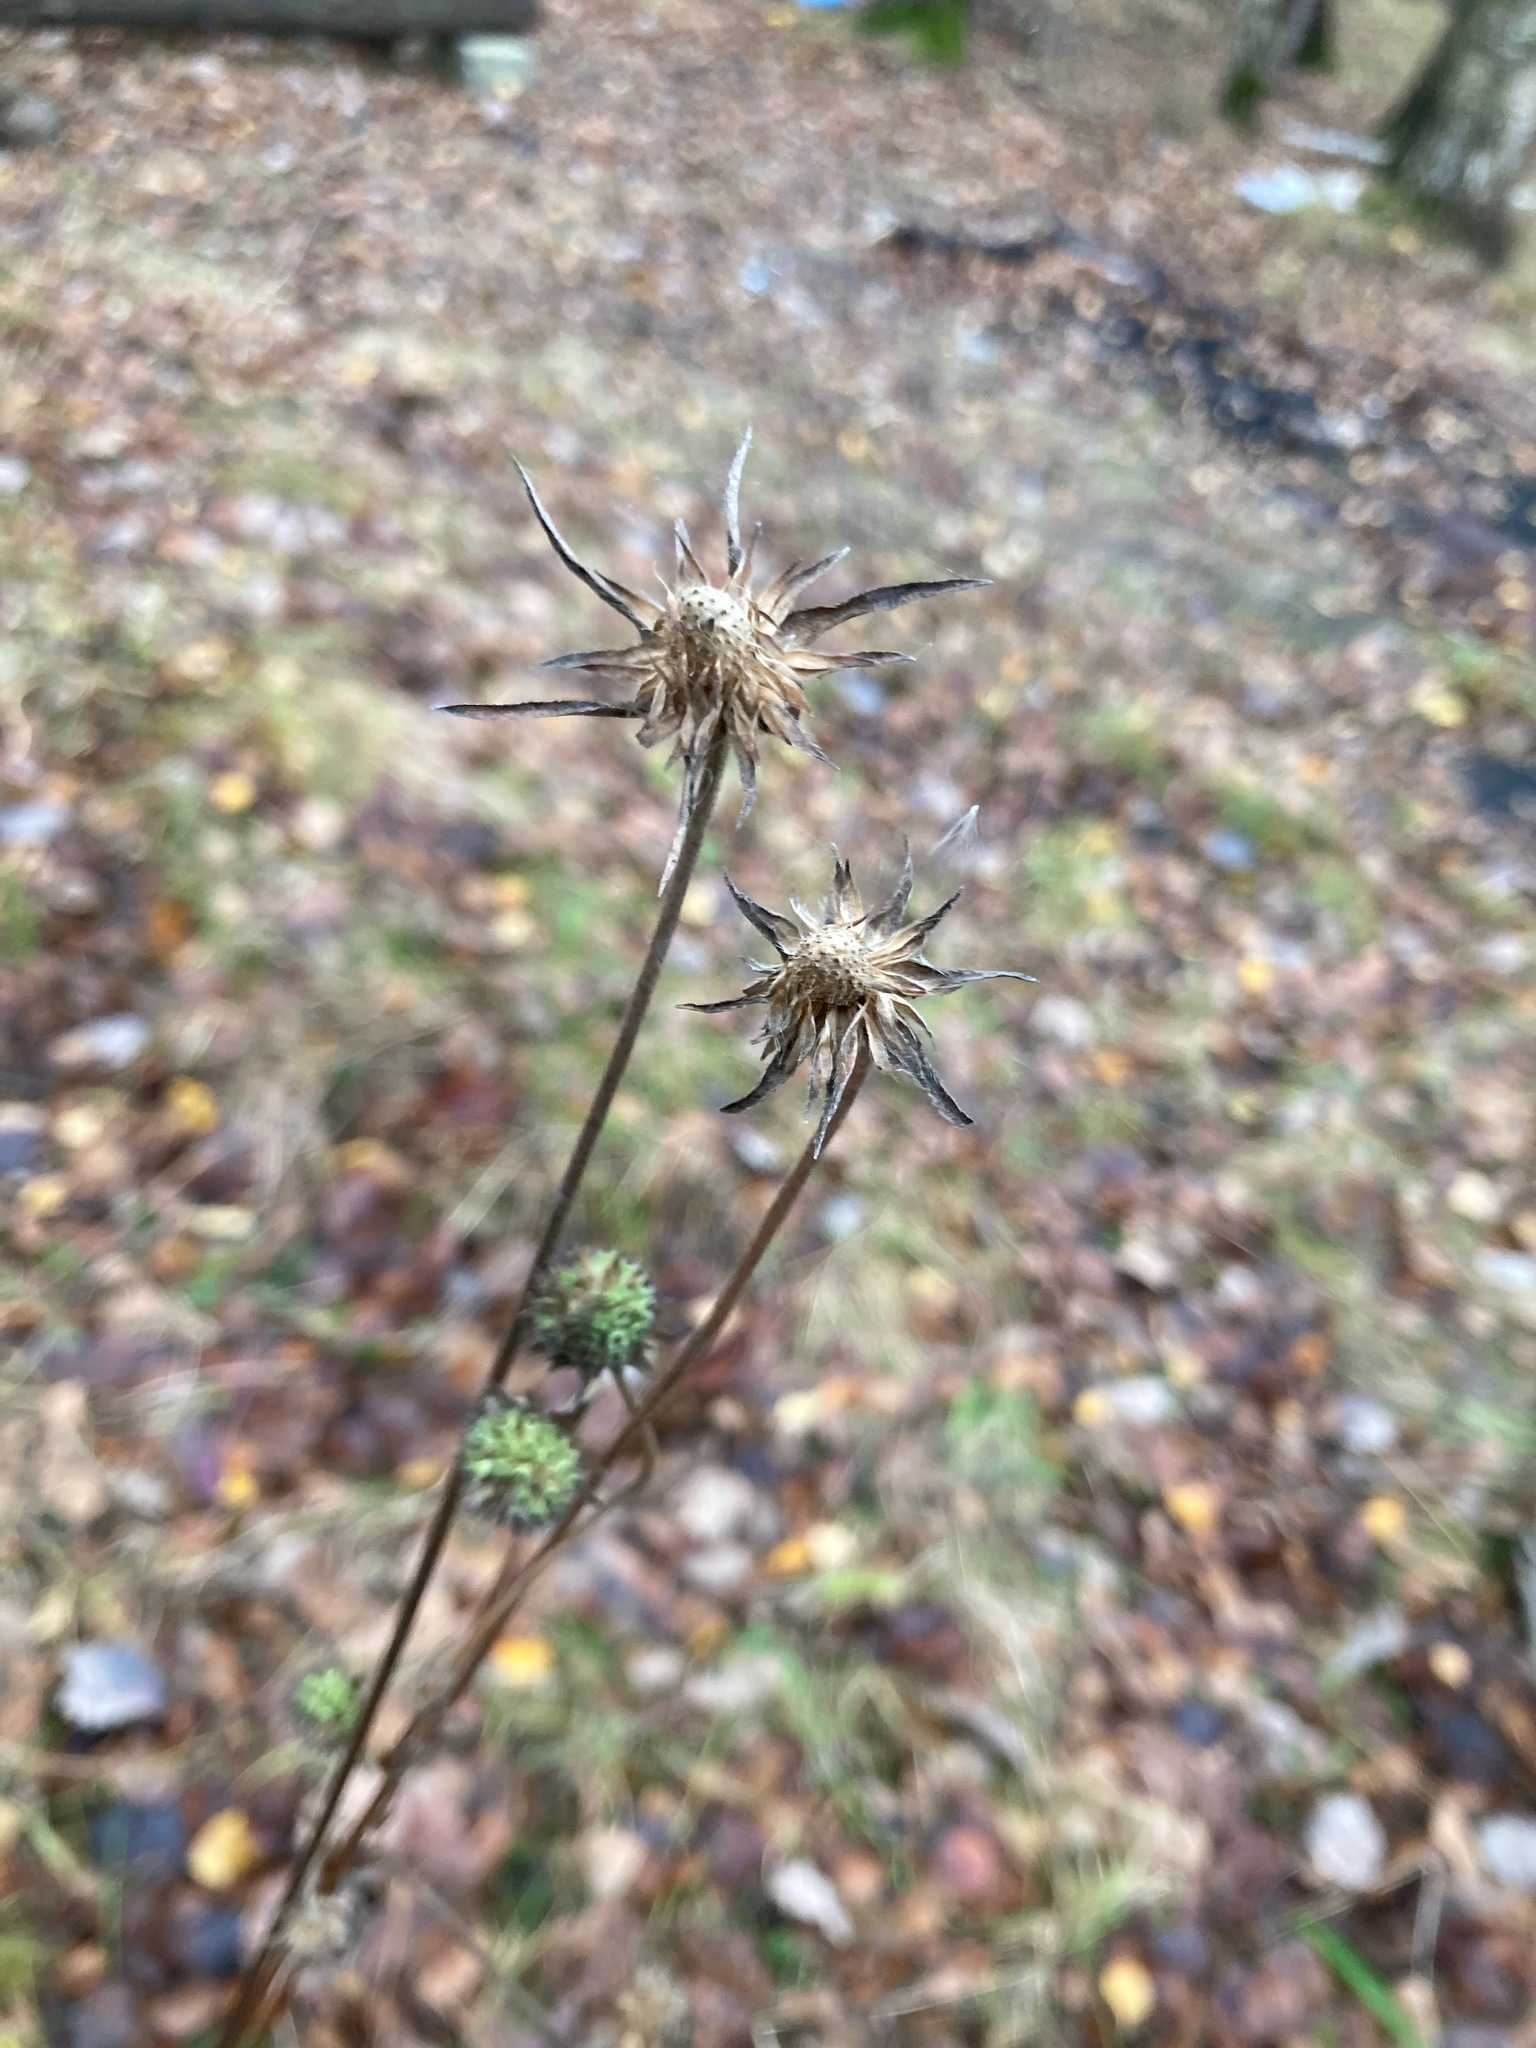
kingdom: Plantae
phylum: Tracheophyta
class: Magnoliopsida
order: Dipsacales
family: Caprifoliaceae
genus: Succisa
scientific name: Succisa pratensis
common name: Devil's-bit
